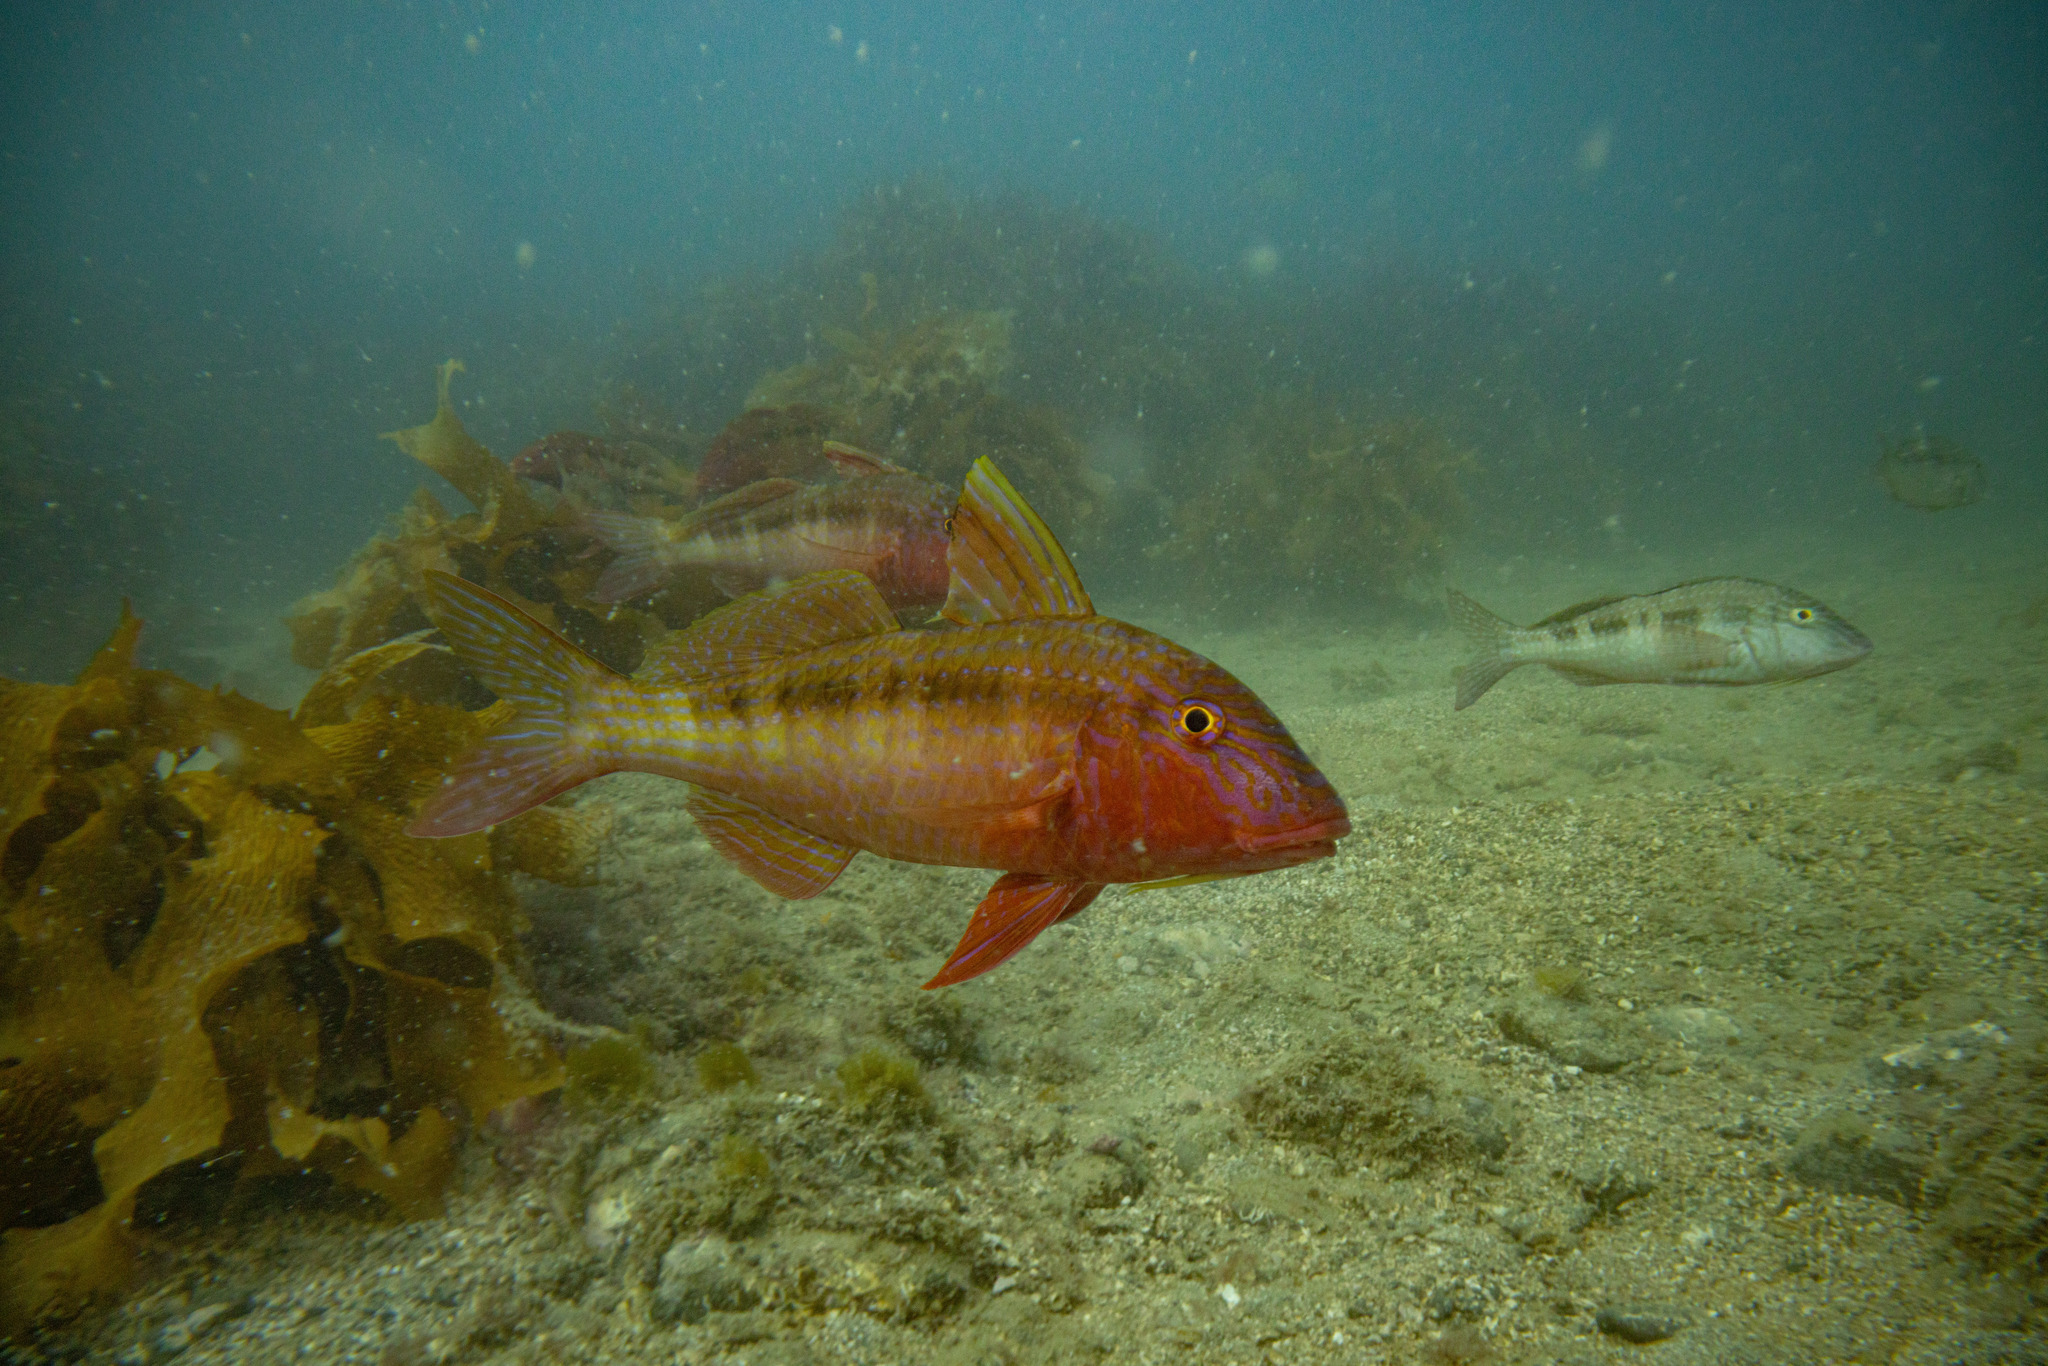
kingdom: Animalia
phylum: Chordata
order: Perciformes
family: Mullidae
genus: Upeneichthys
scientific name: Upeneichthys lineatus
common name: Red mullet
